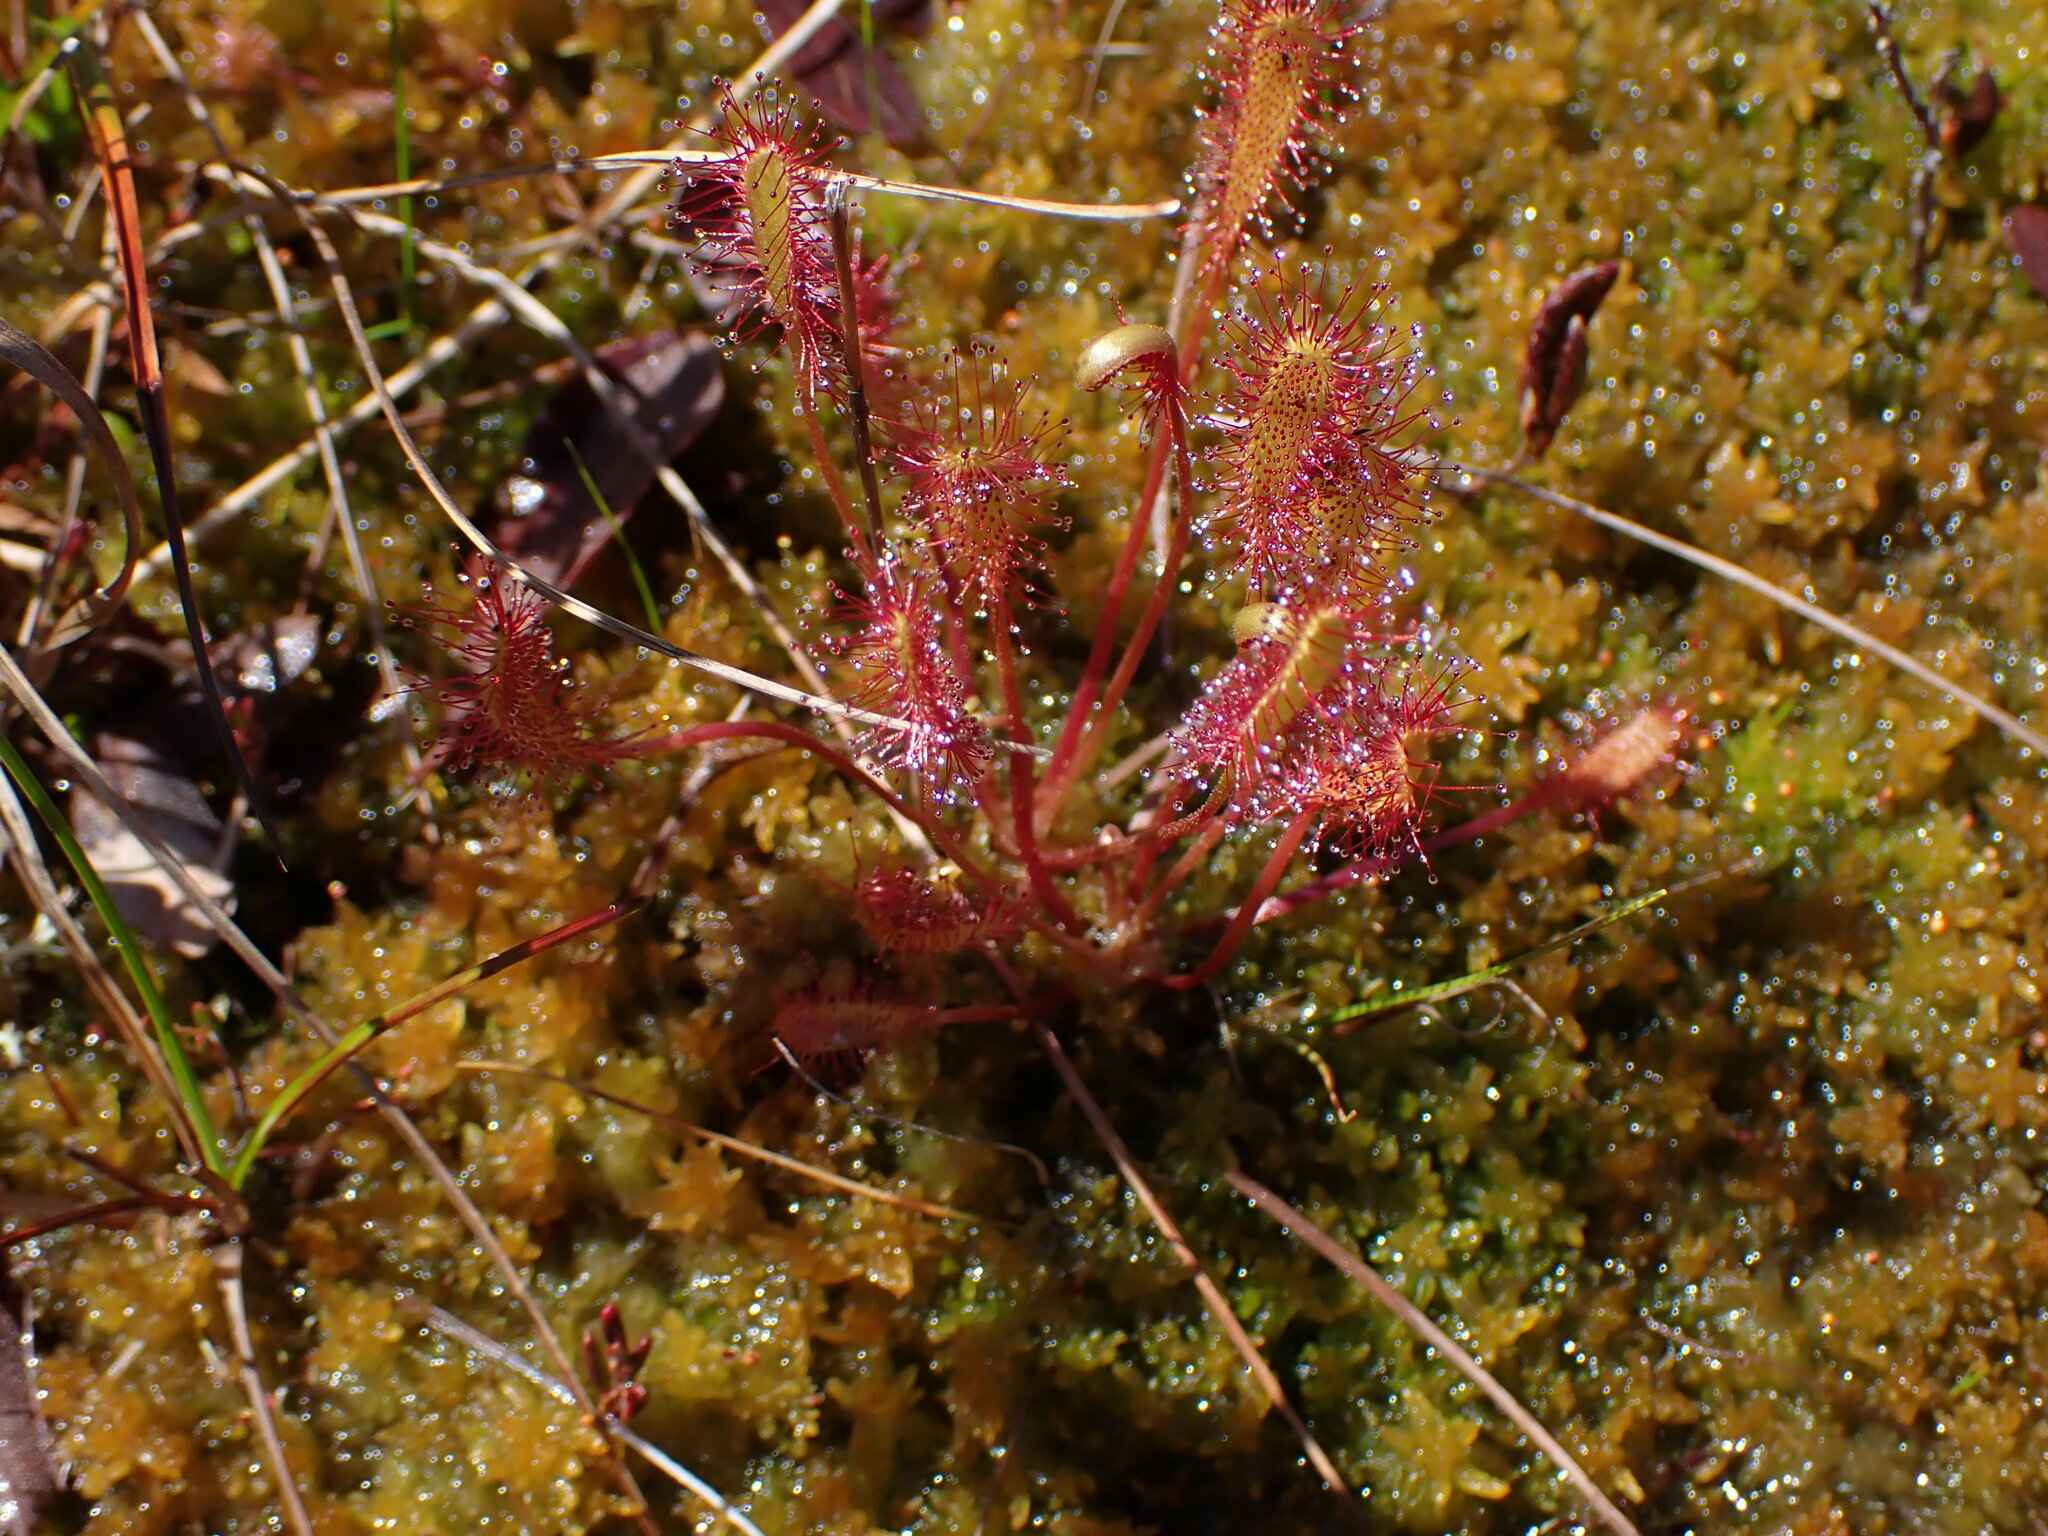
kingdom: Plantae
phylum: Tracheophyta
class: Magnoliopsida
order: Caryophyllales
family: Droseraceae
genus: Drosera
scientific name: Drosera anglica
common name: Great sundew
